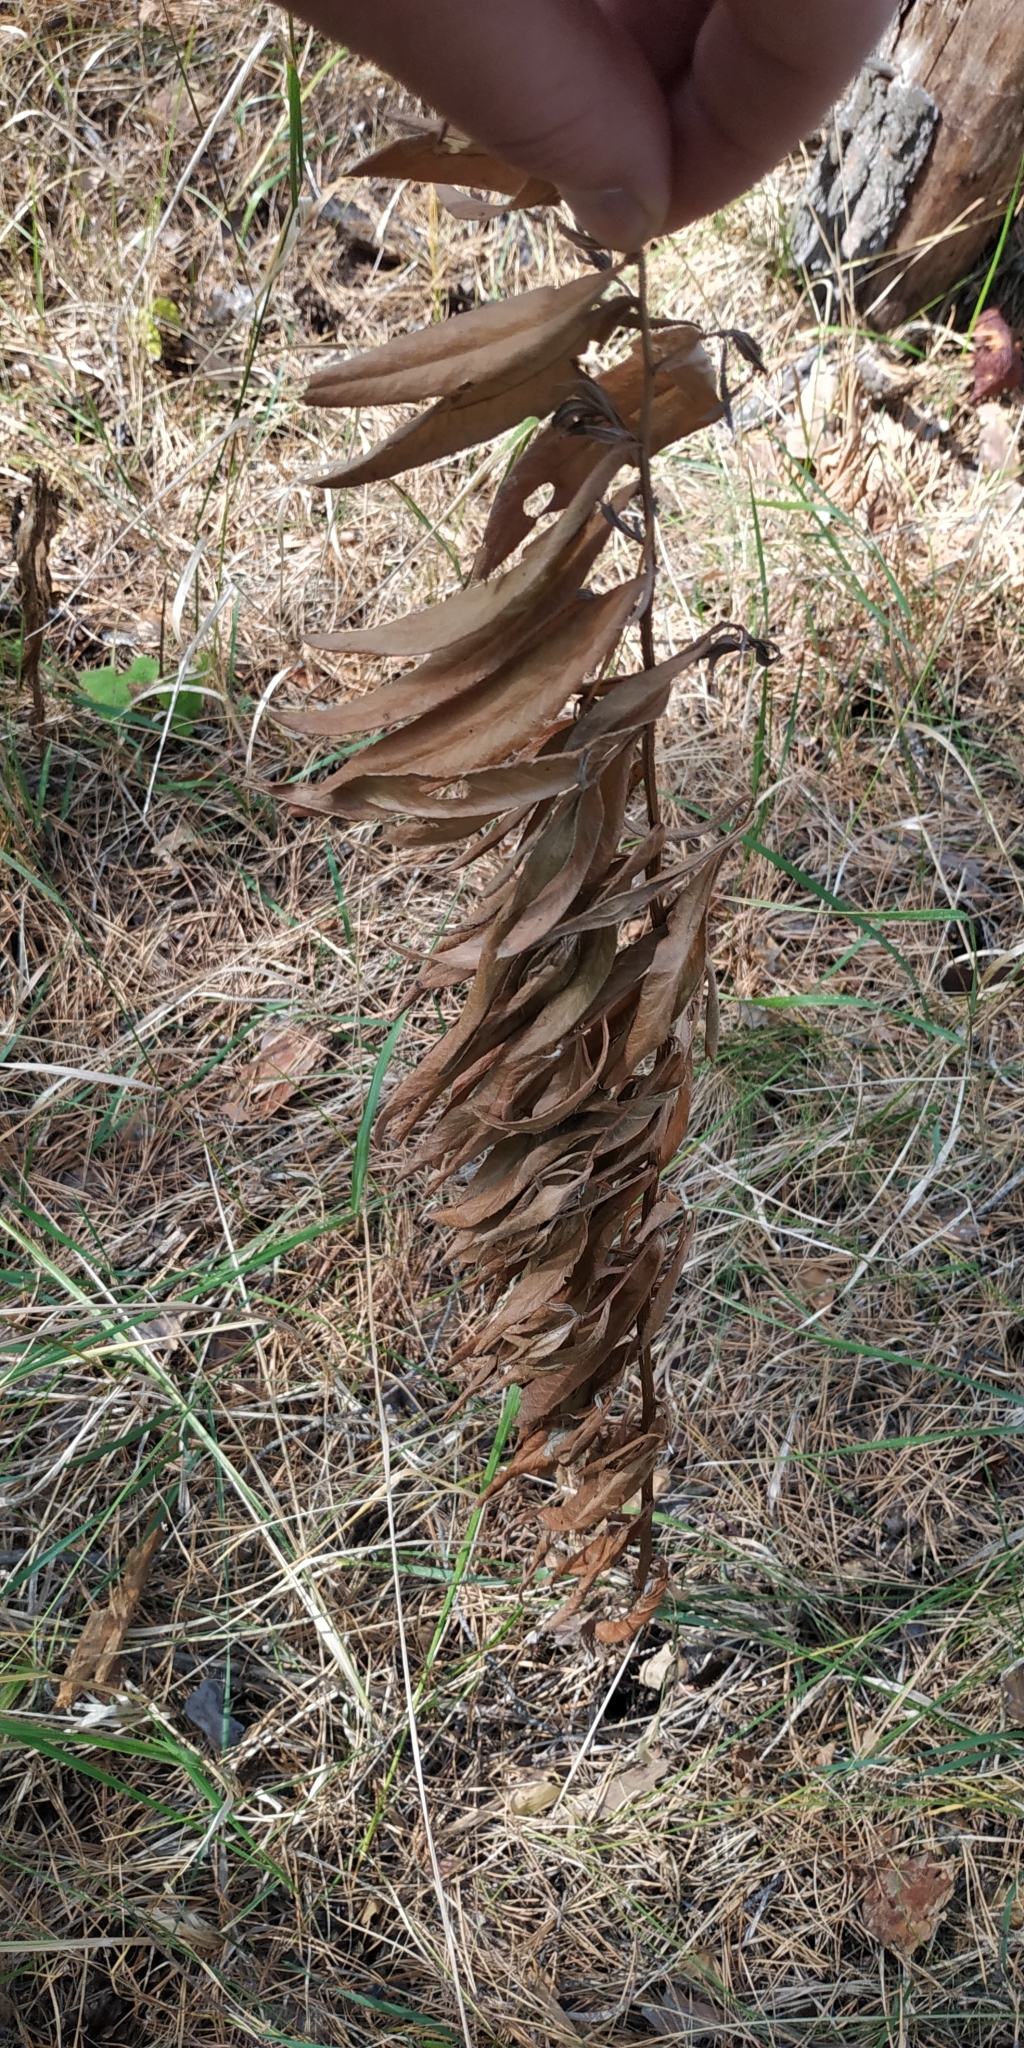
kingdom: Plantae
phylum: Tracheophyta
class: Magnoliopsida
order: Asterales
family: Asteraceae
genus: Hieracium
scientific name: Hieracium umbellatum
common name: Northern hawkweed
